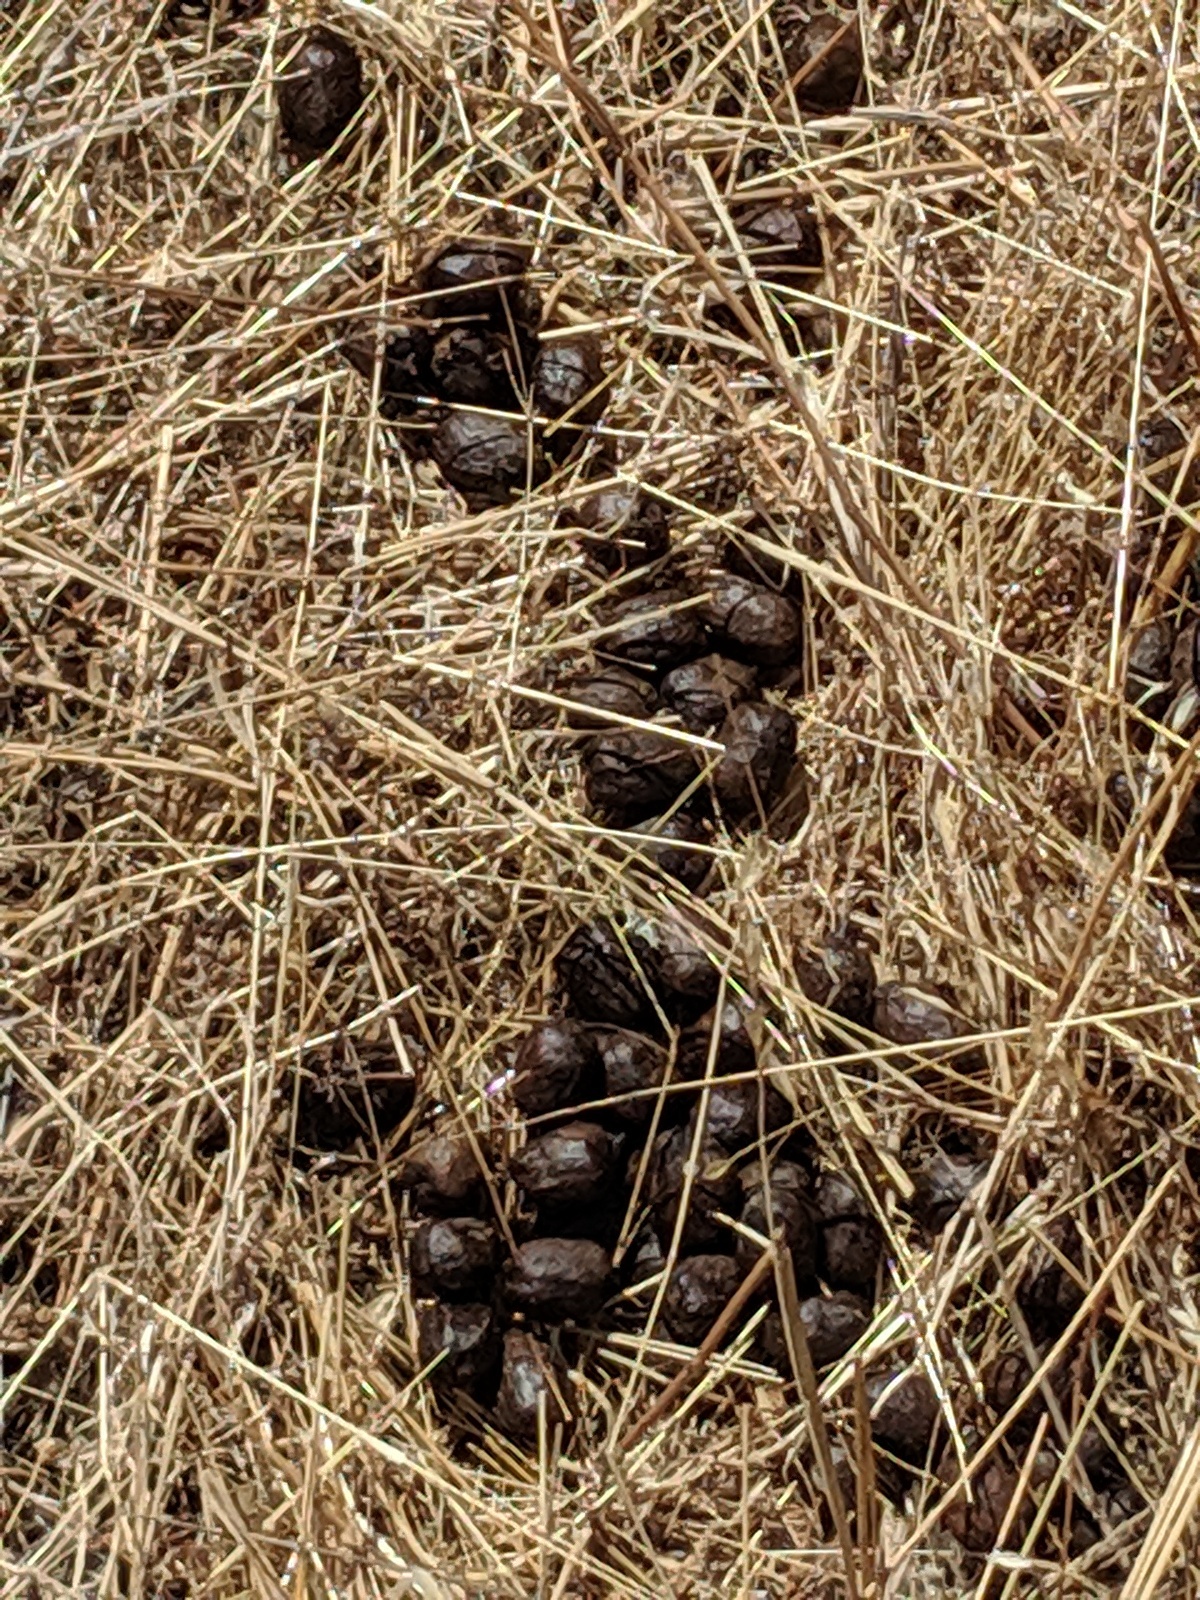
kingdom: Animalia
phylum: Chordata
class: Mammalia
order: Artiodactyla
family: Cervidae
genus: Odocoileus
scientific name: Odocoileus hemionus
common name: Mule deer
